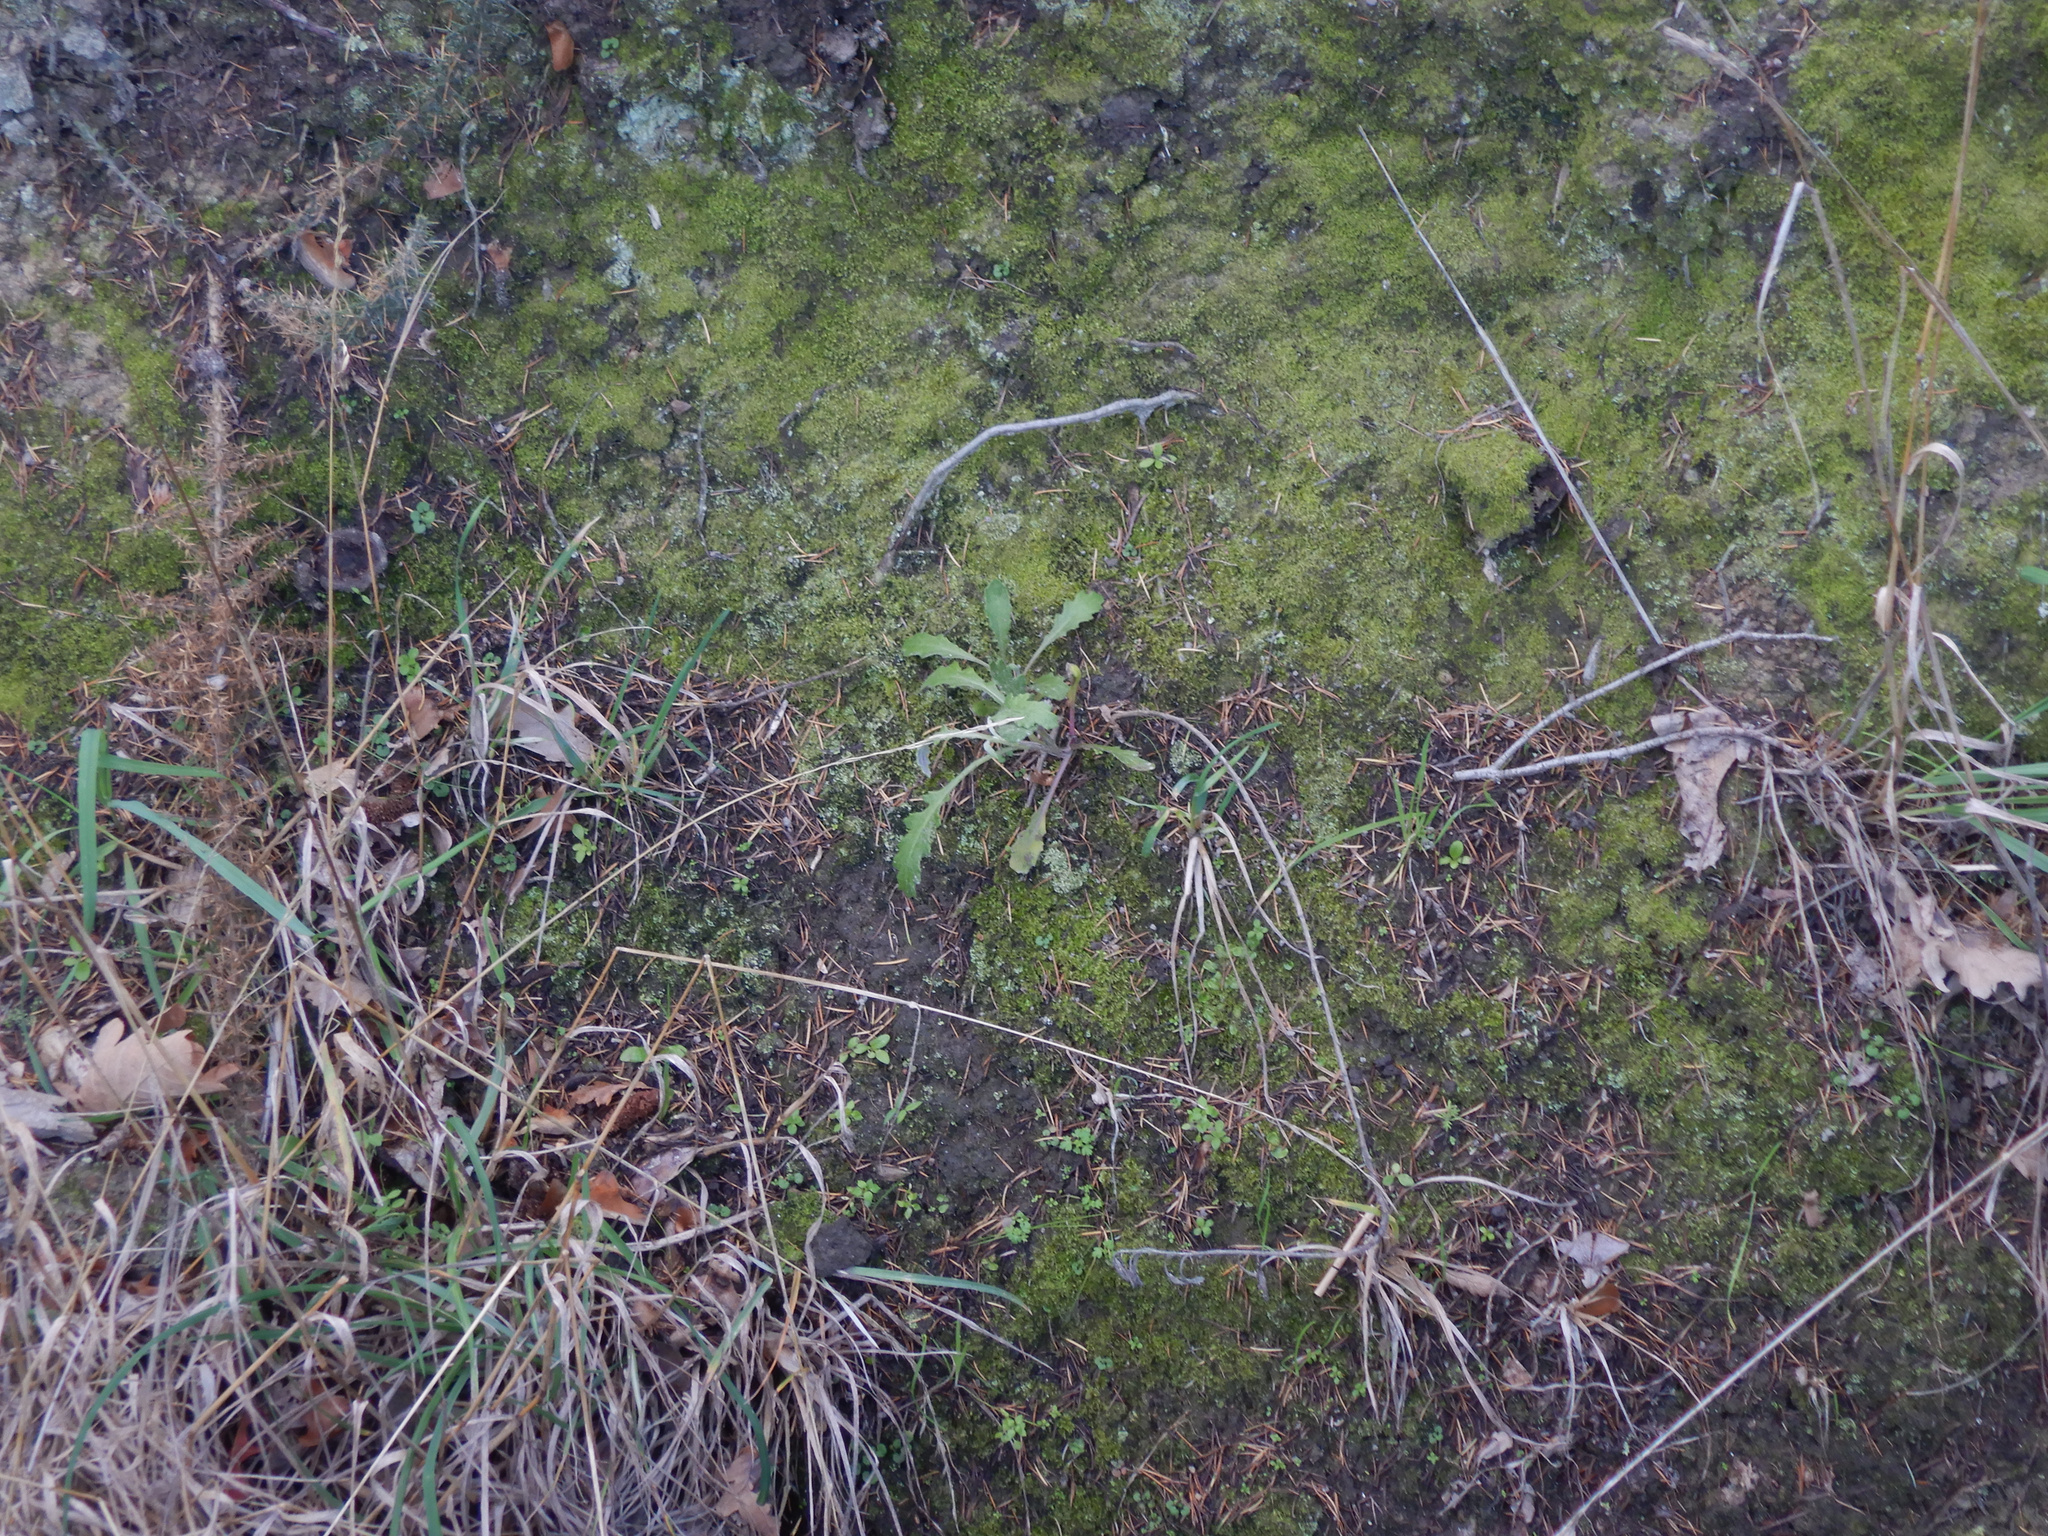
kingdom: Plantae
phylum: Tracheophyta
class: Magnoliopsida
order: Asterales
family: Asteraceae
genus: Senecio
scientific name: Senecio glomeratus
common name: Cutleaf burnweed
